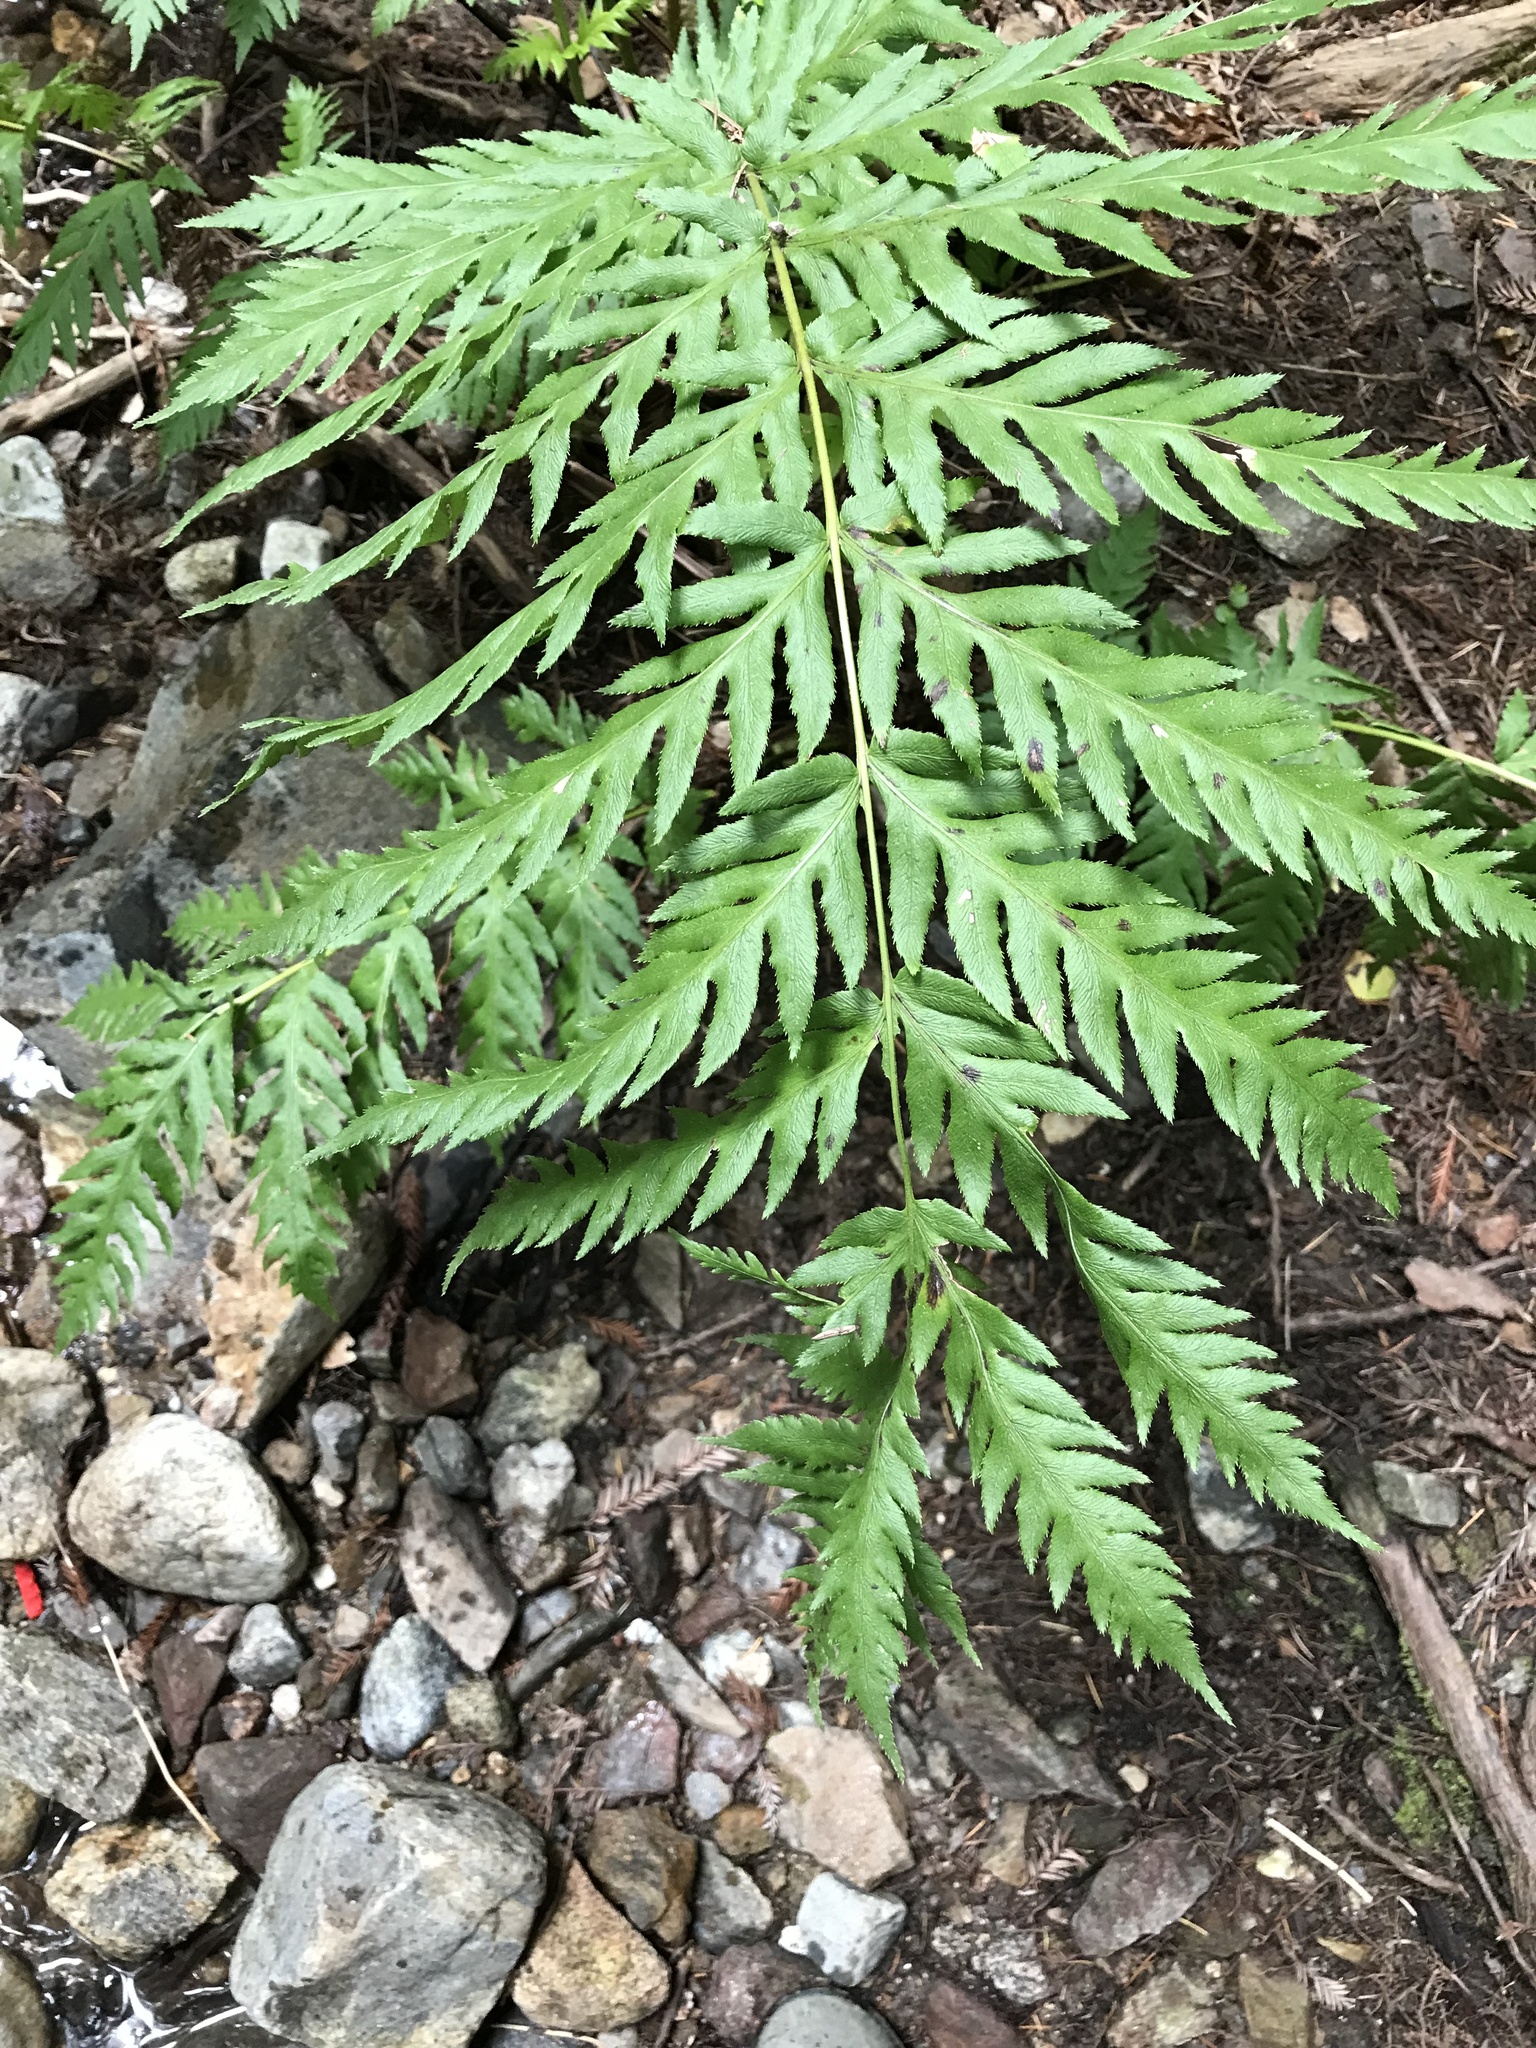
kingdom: Plantae
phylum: Tracheophyta
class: Polypodiopsida
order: Polypodiales
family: Blechnaceae
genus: Woodwardia
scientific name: Woodwardia fimbriata
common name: Giant chain fern
